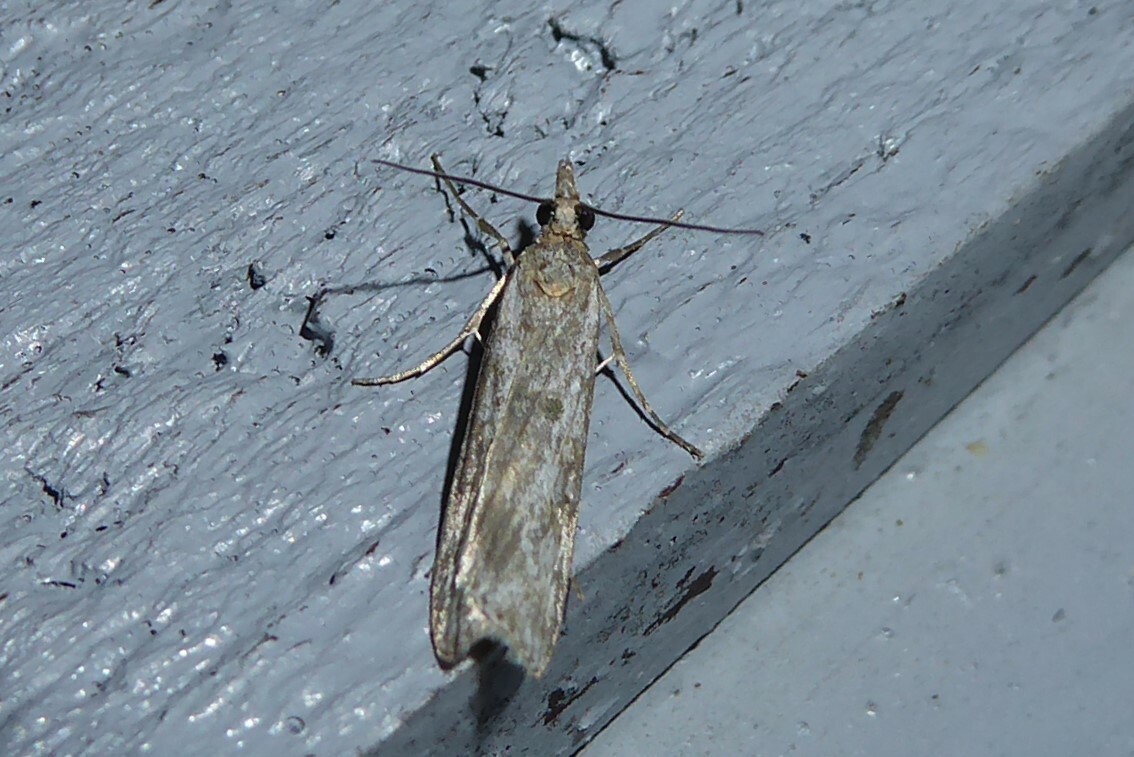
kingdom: Animalia
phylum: Arthropoda
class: Insecta
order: Lepidoptera
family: Crambidae
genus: Eudonia
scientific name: Eudonia leptalea
